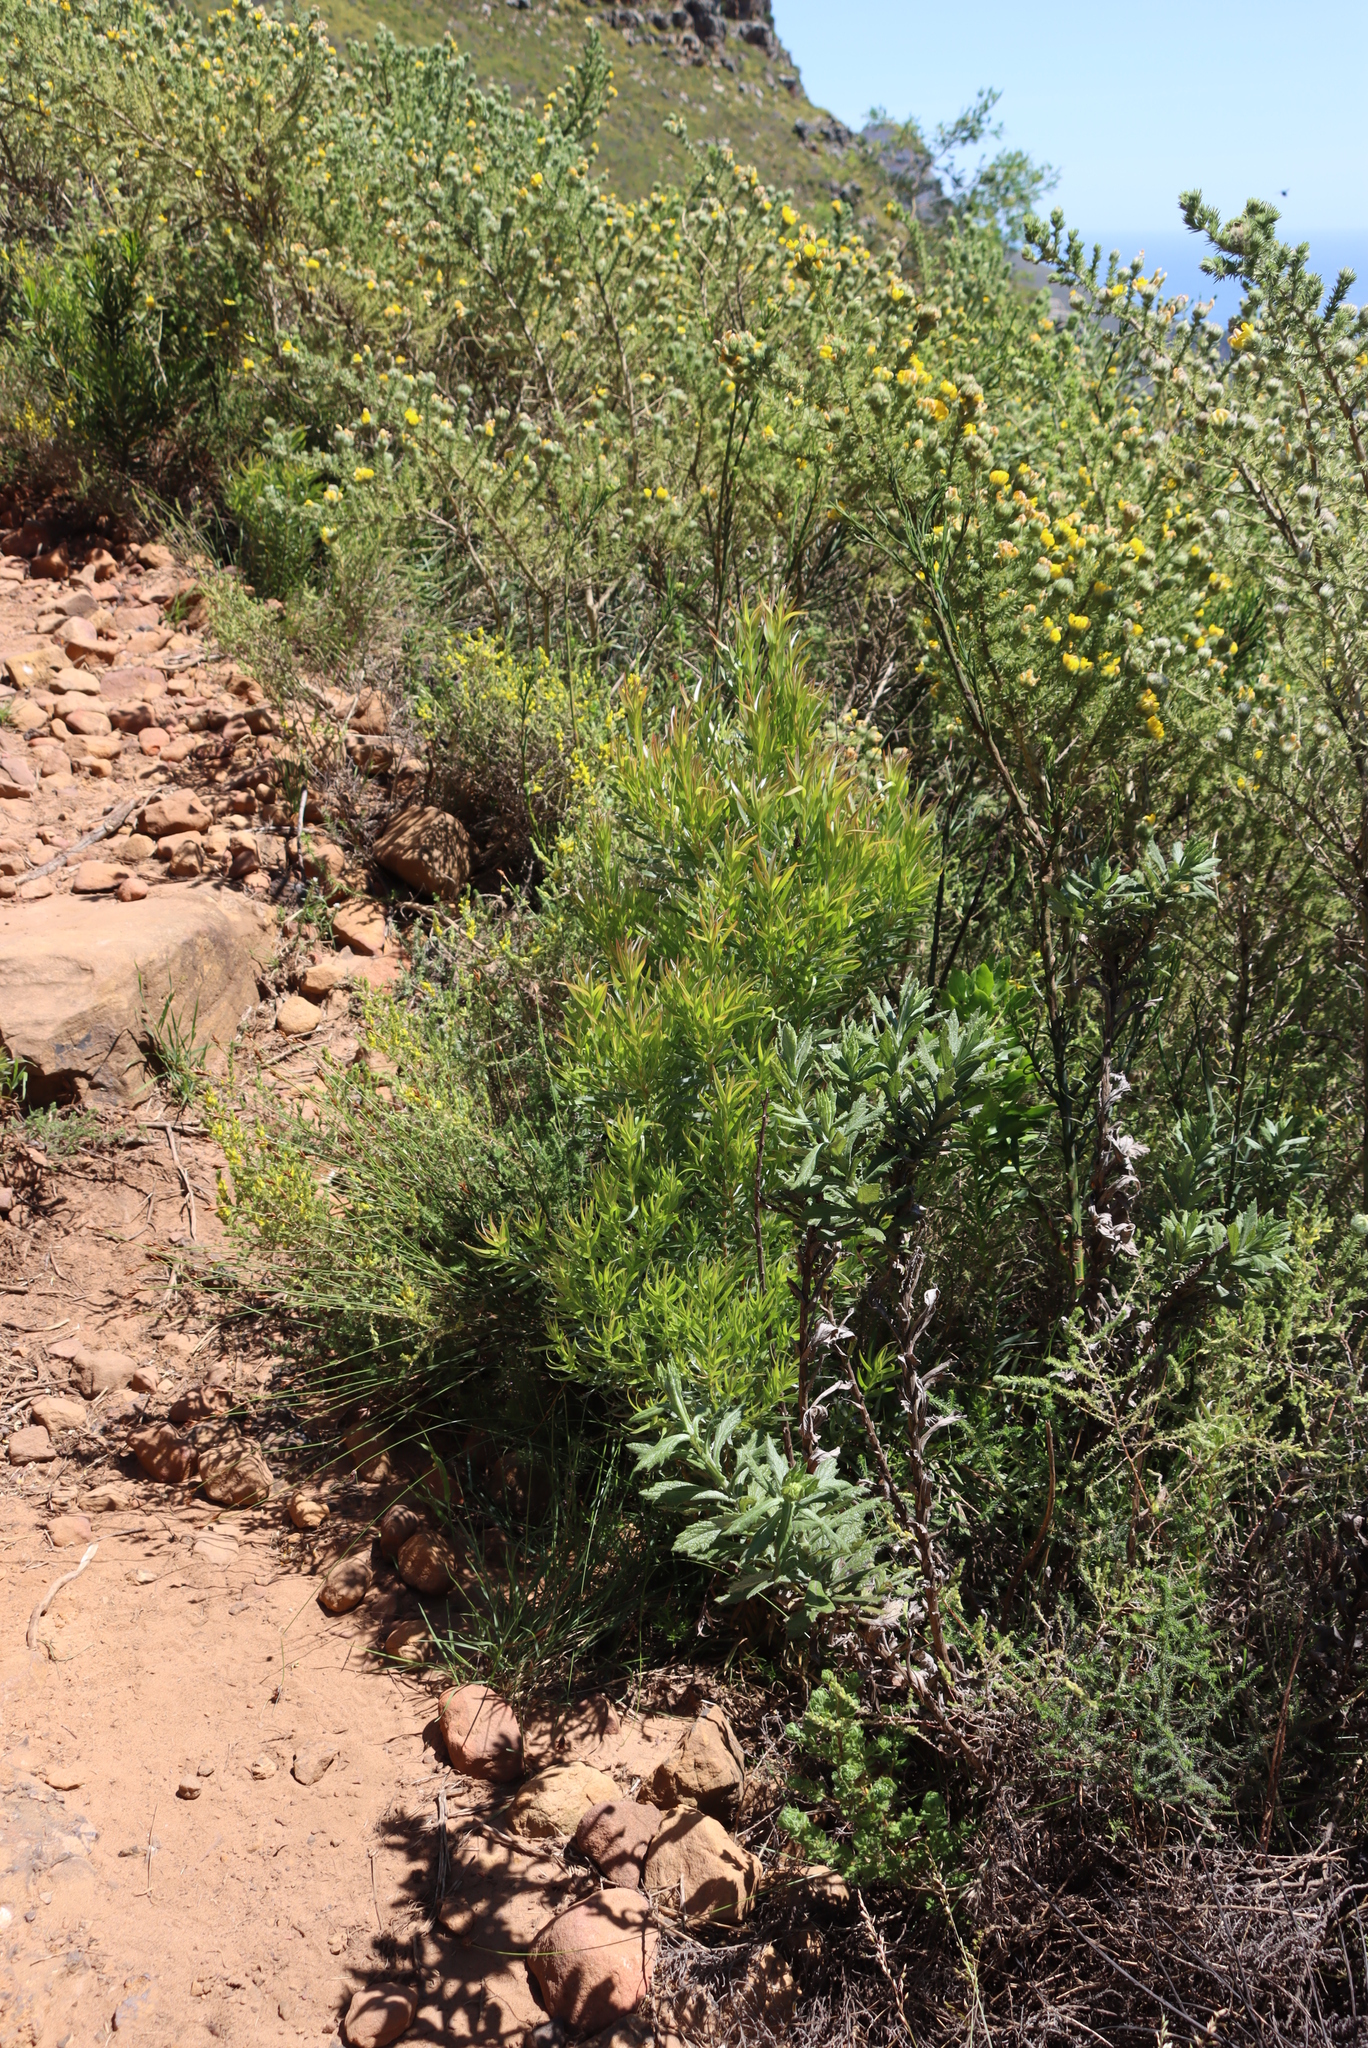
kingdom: Plantae
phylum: Tracheophyta
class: Magnoliopsida
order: Proteales
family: Proteaceae
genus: Leucadendron
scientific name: Leucadendron xanthoconus
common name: Sickle-leaf conebush
